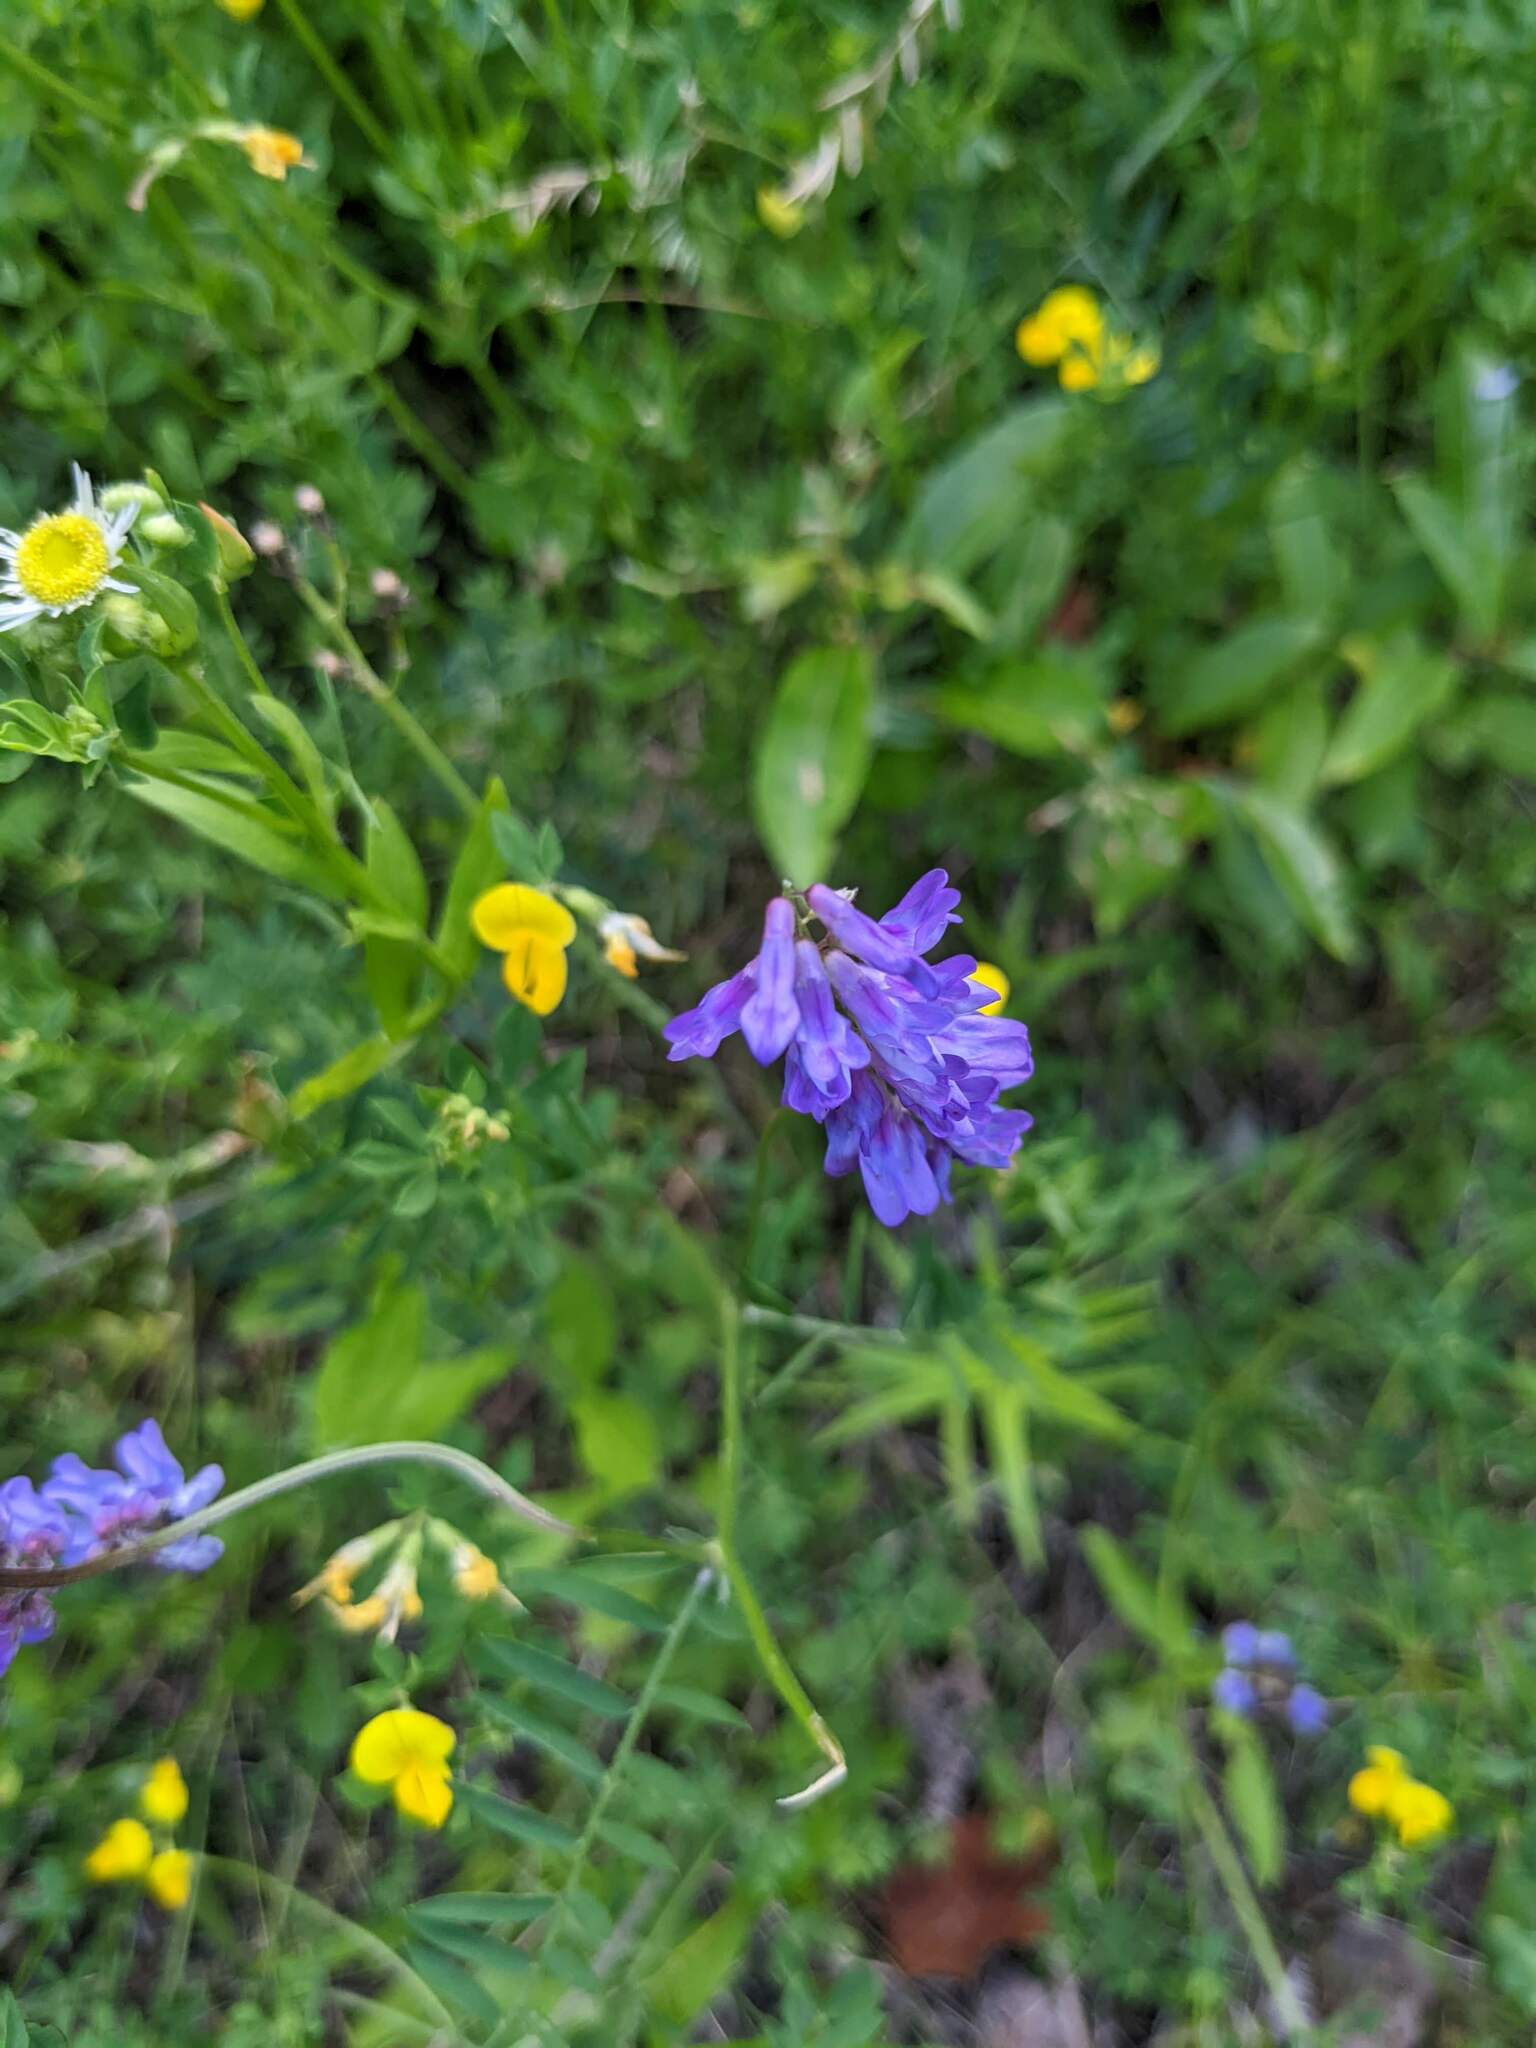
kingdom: Plantae
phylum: Tracheophyta
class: Magnoliopsida
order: Fabales
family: Fabaceae
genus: Vicia
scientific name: Vicia cracca
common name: Bird vetch
